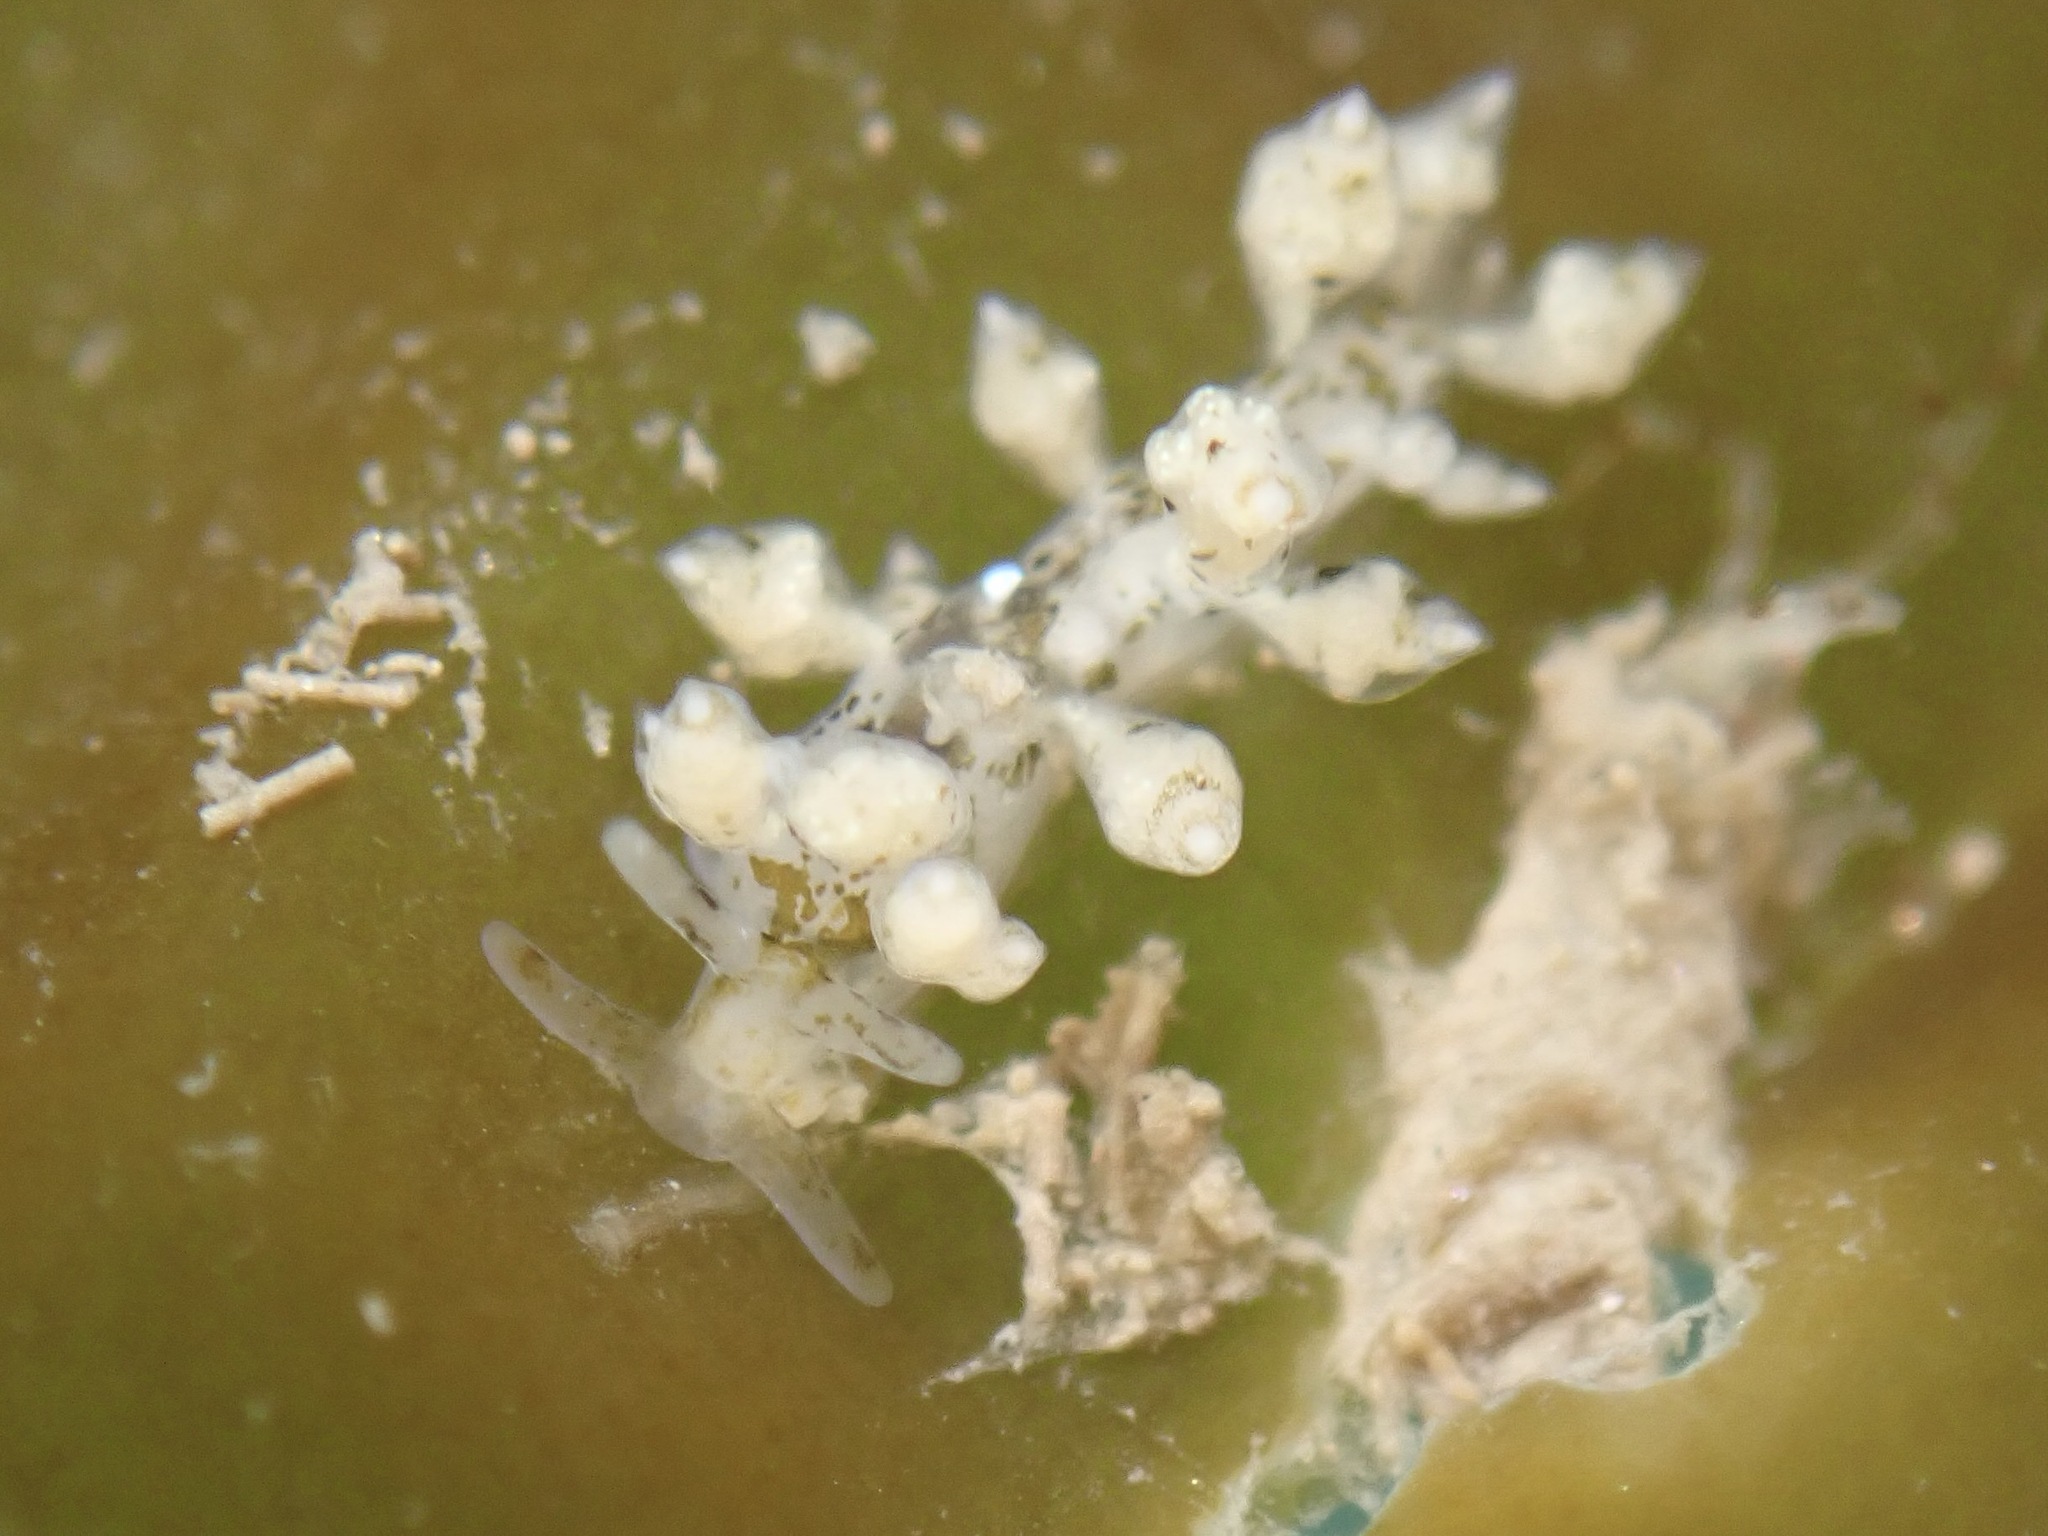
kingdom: Animalia
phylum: Mollusca
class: Gastropoda
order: Nudibranchia
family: Eubranchidae
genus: Eubranchus
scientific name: Eubranchus rustyus
